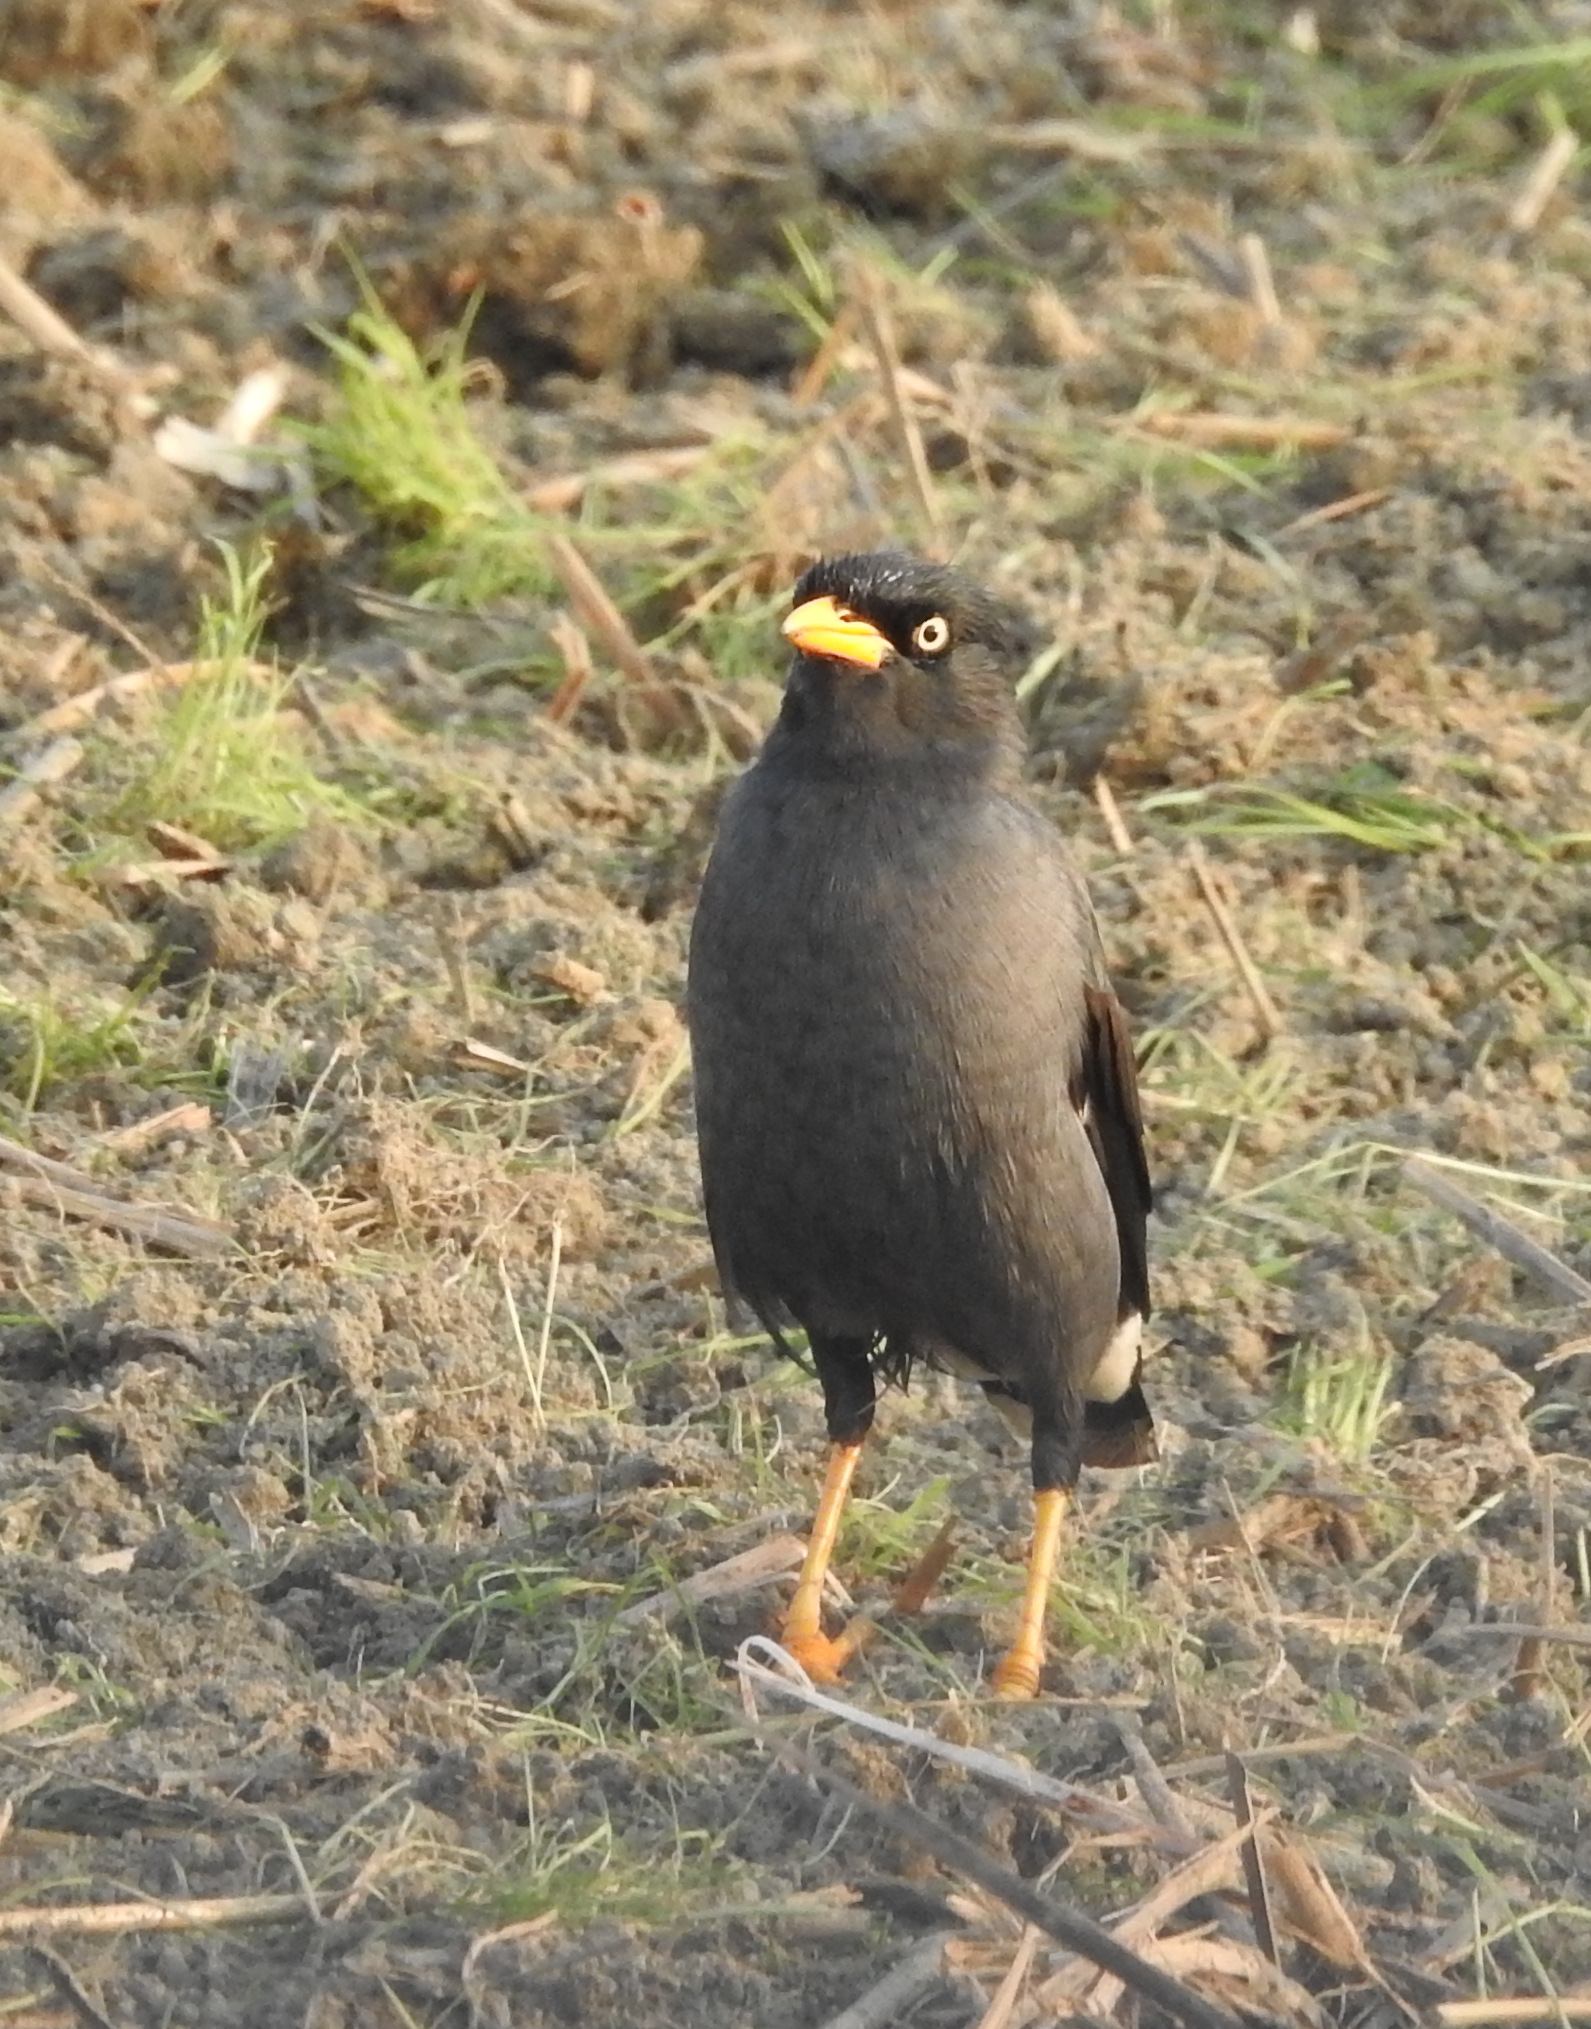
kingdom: Animalia
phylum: Chordata
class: Aves
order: Passeriformes
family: Sturnidae
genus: Acridotheres
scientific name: Acridotheres javanicus
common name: Javan myna
